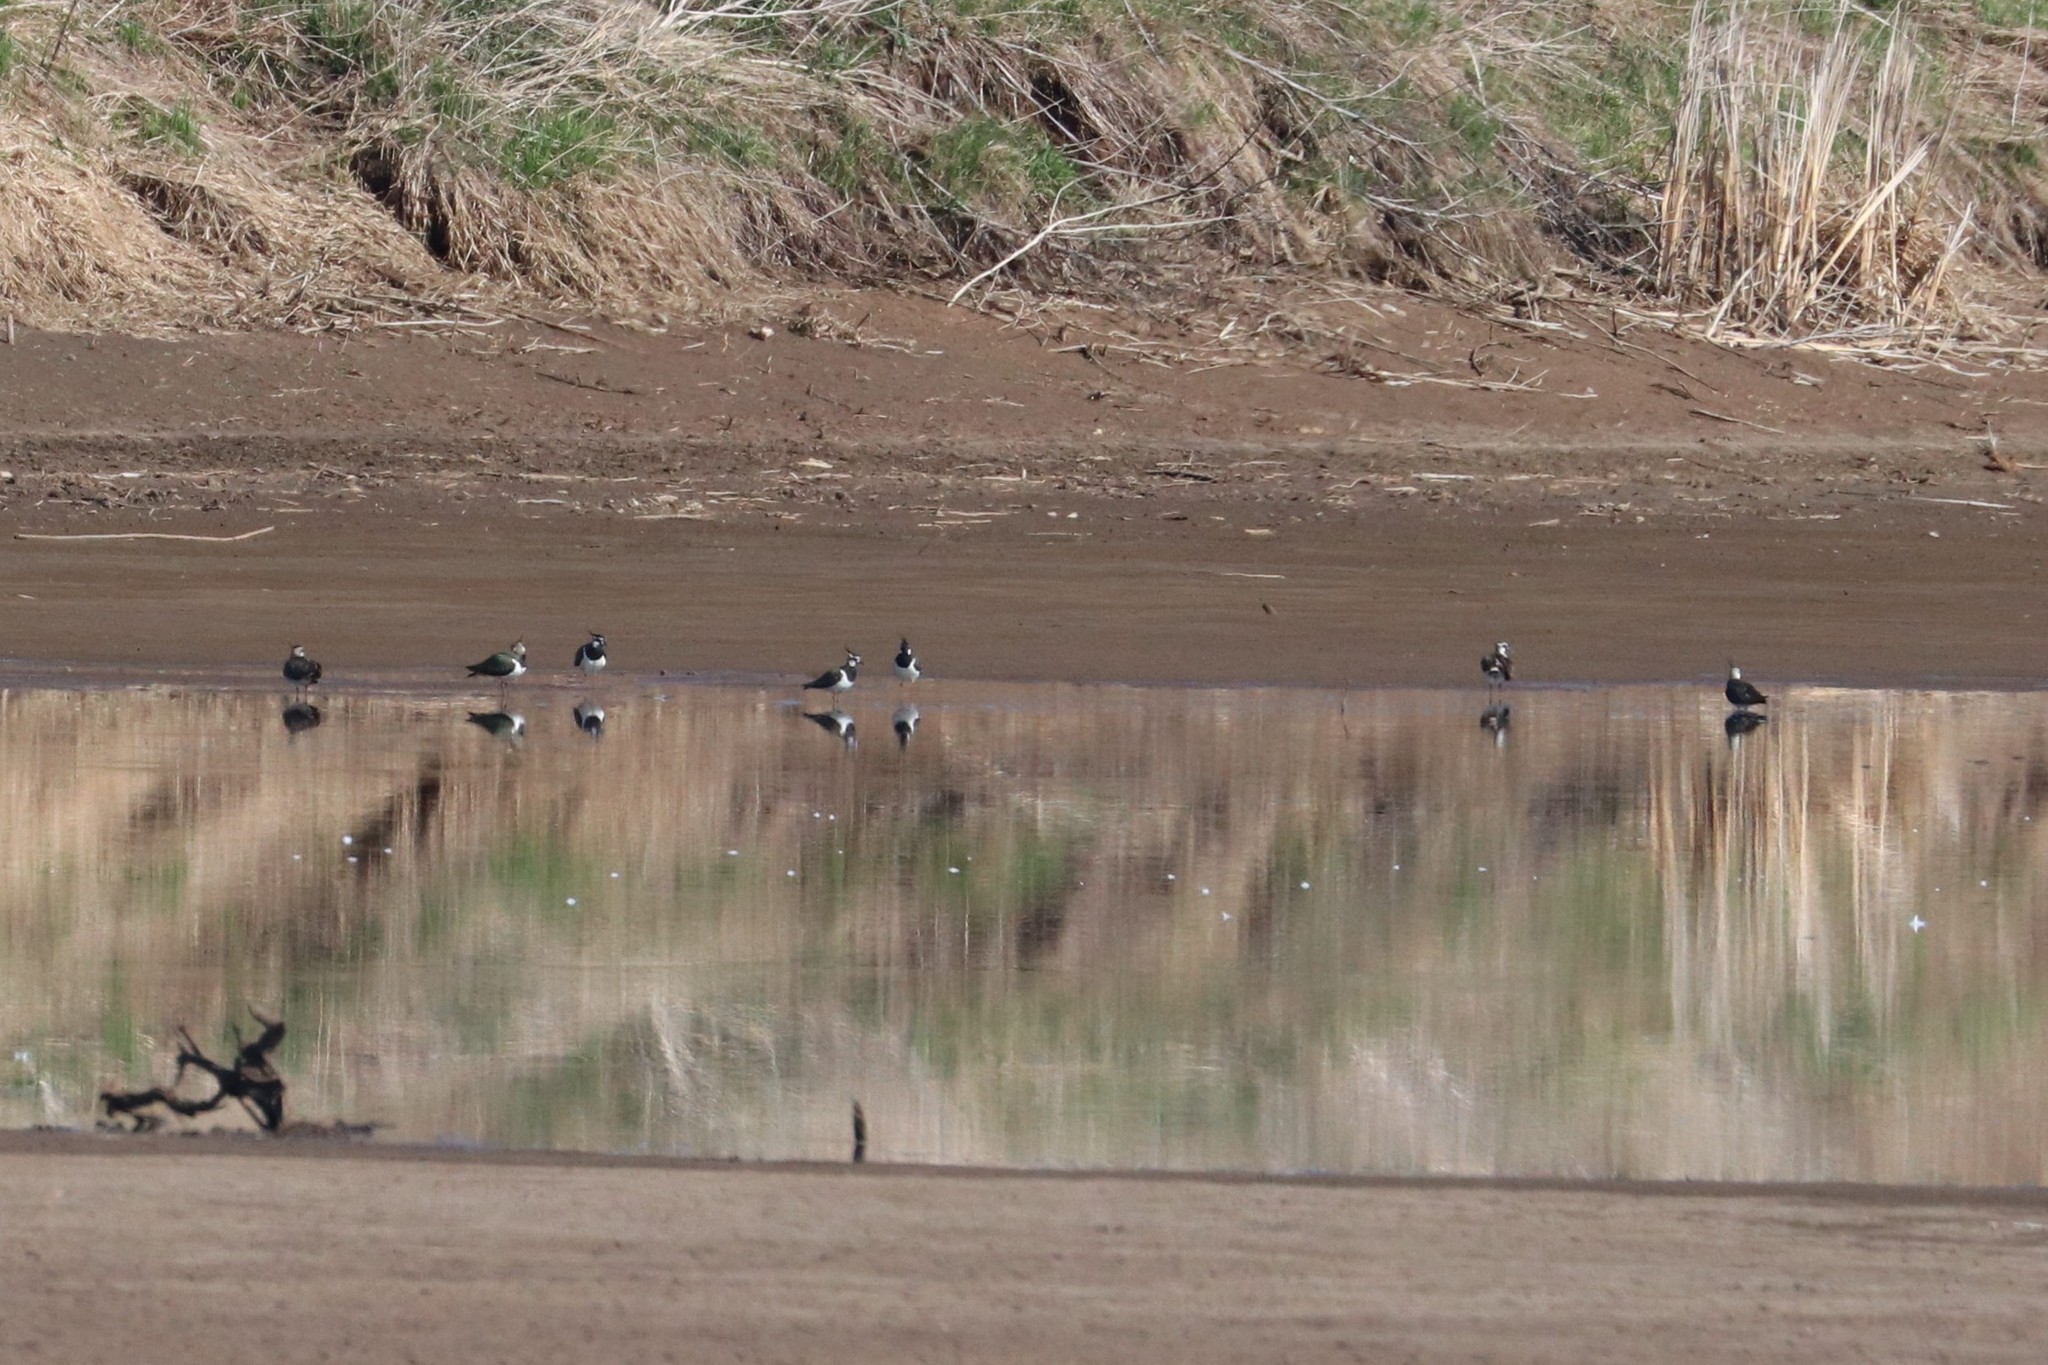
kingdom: Animalia
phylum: Chordata
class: Aves
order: Charadriiformes
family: Charadriidae
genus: Vanellus
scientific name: Vanellus vanellus
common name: Northern lapwing
